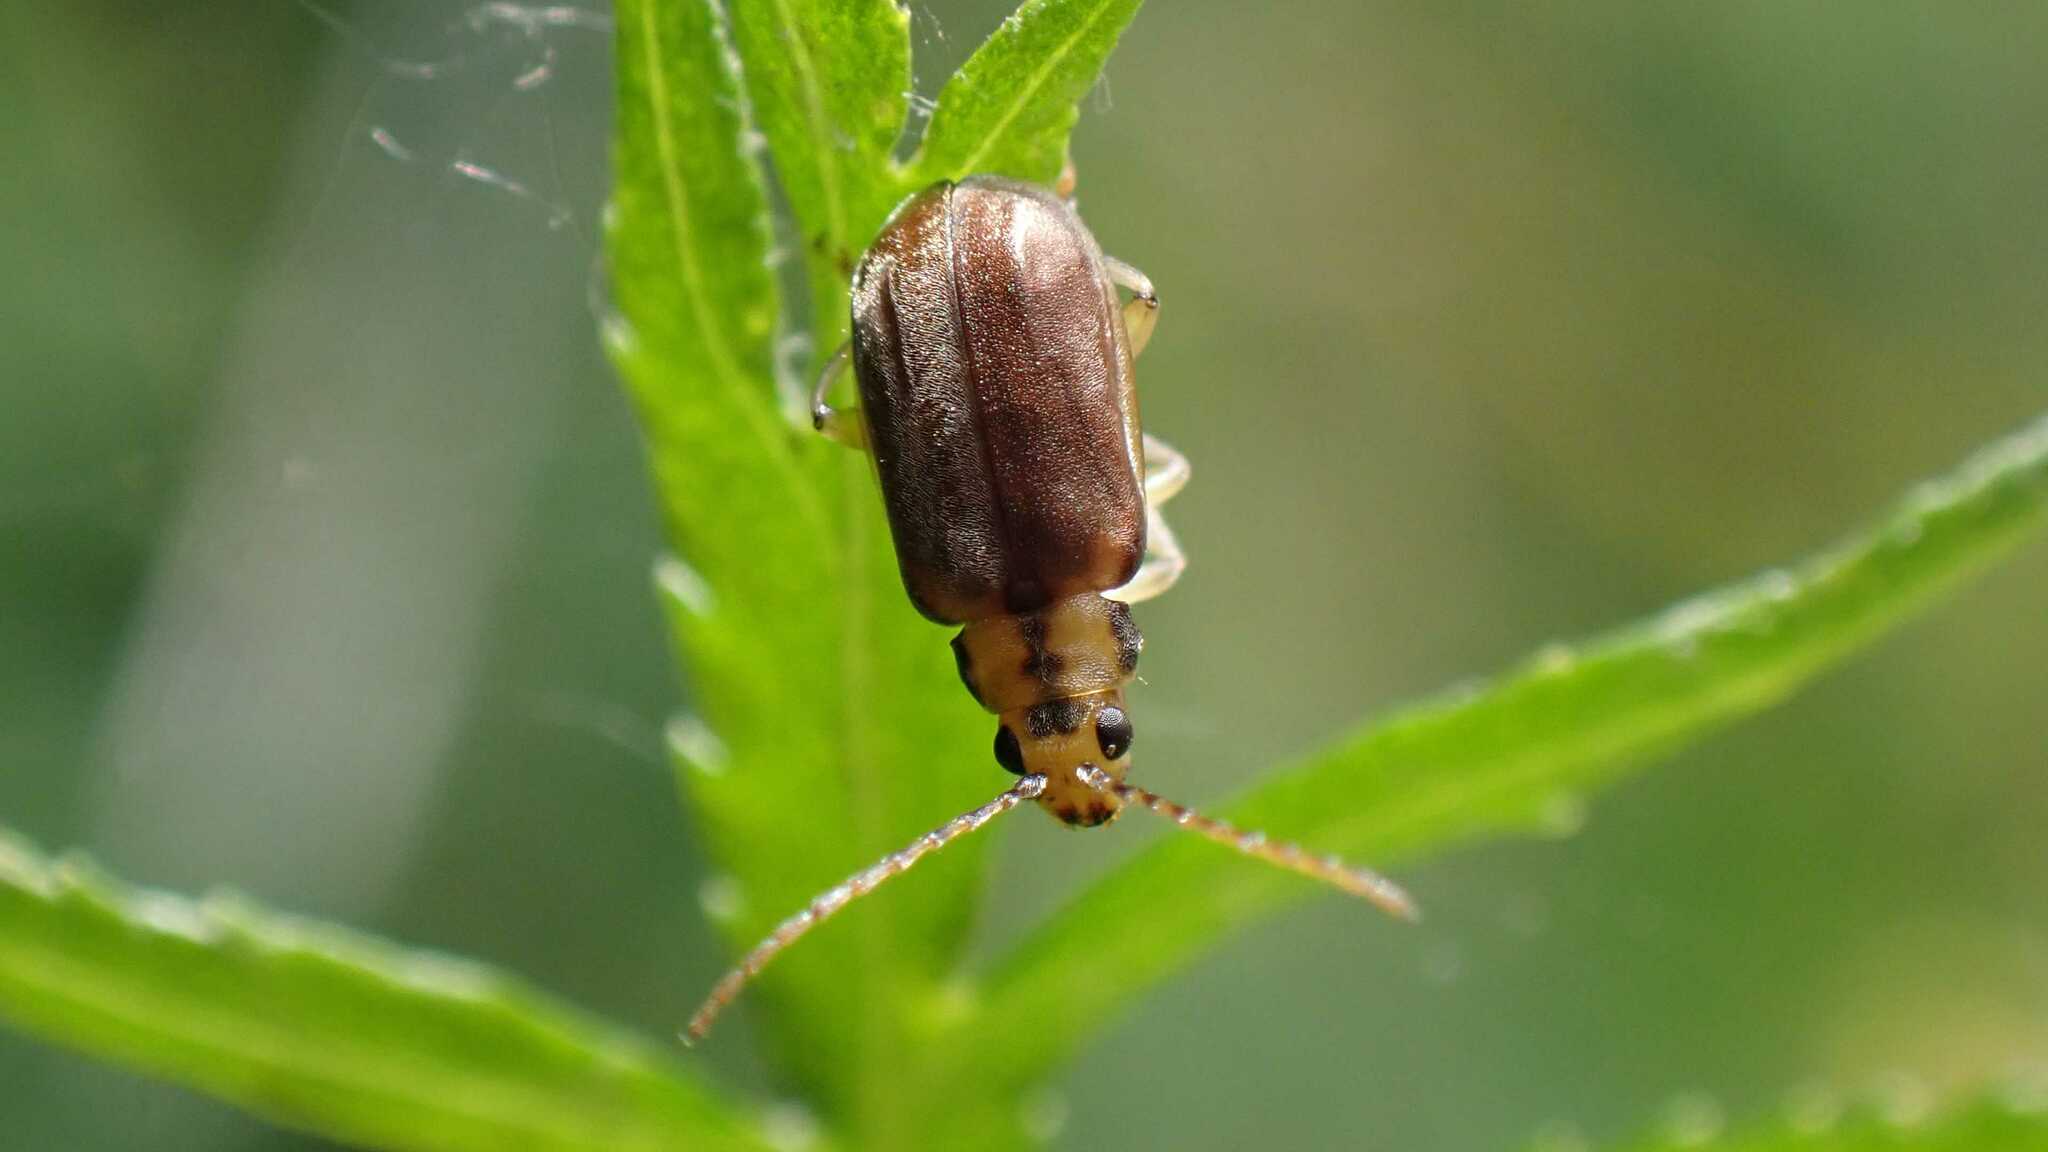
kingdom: Animalia
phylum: Arthropoda
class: Insecta
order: Coleoptera
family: Chrysomelidae
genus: Pyrrhalta
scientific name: Pyrrhalta viburni
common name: Guelder-rose leaf beetle
